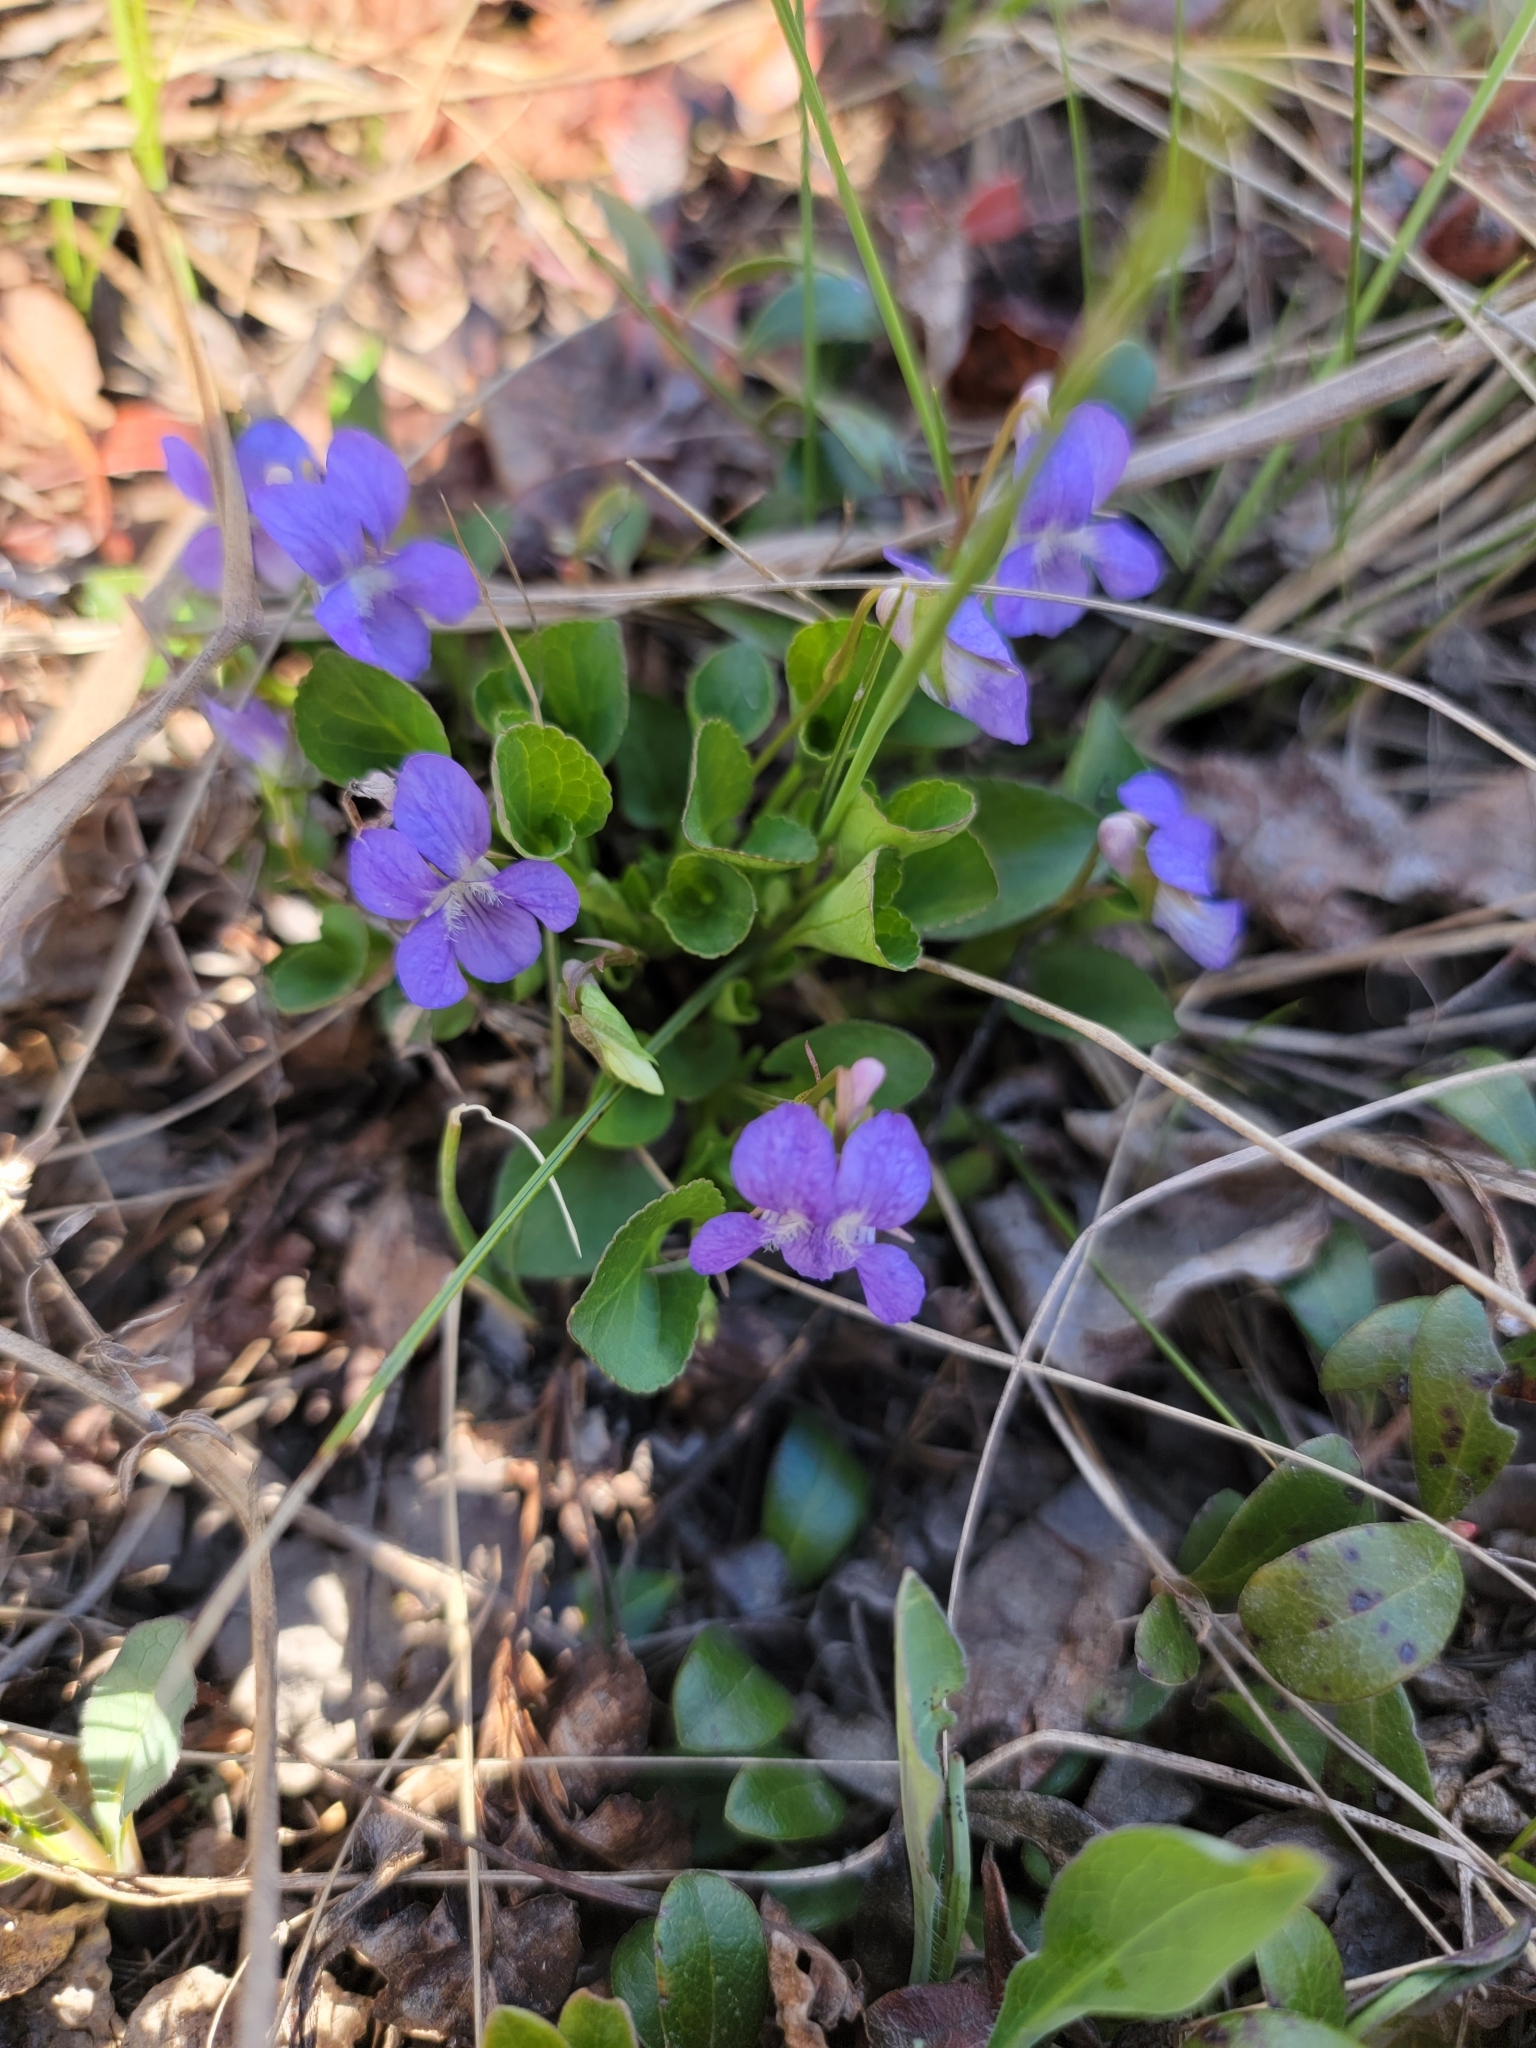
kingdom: Plantae
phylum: Tracheophyta
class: Magnoliopsida
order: Malpighiales
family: Violaceae
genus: Viola
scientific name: Viola adunca
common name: Sand violet
